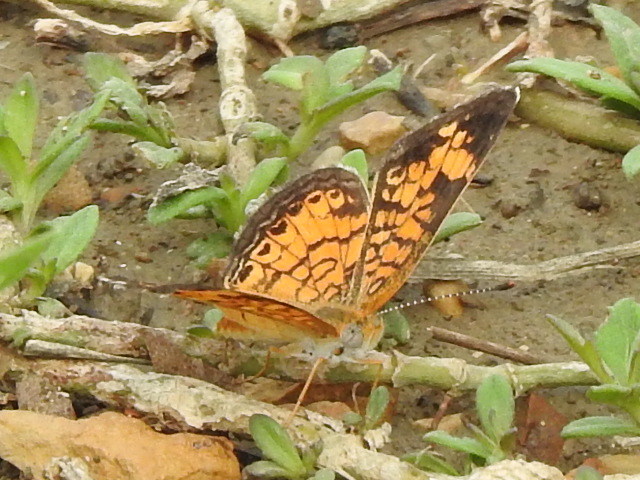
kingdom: Animalia
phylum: Arthropoda
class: Insecta
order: Lepidoptera
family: Nymphalidae
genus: Phyciodes
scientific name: Phyciodes tharos
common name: Pearl crescent
